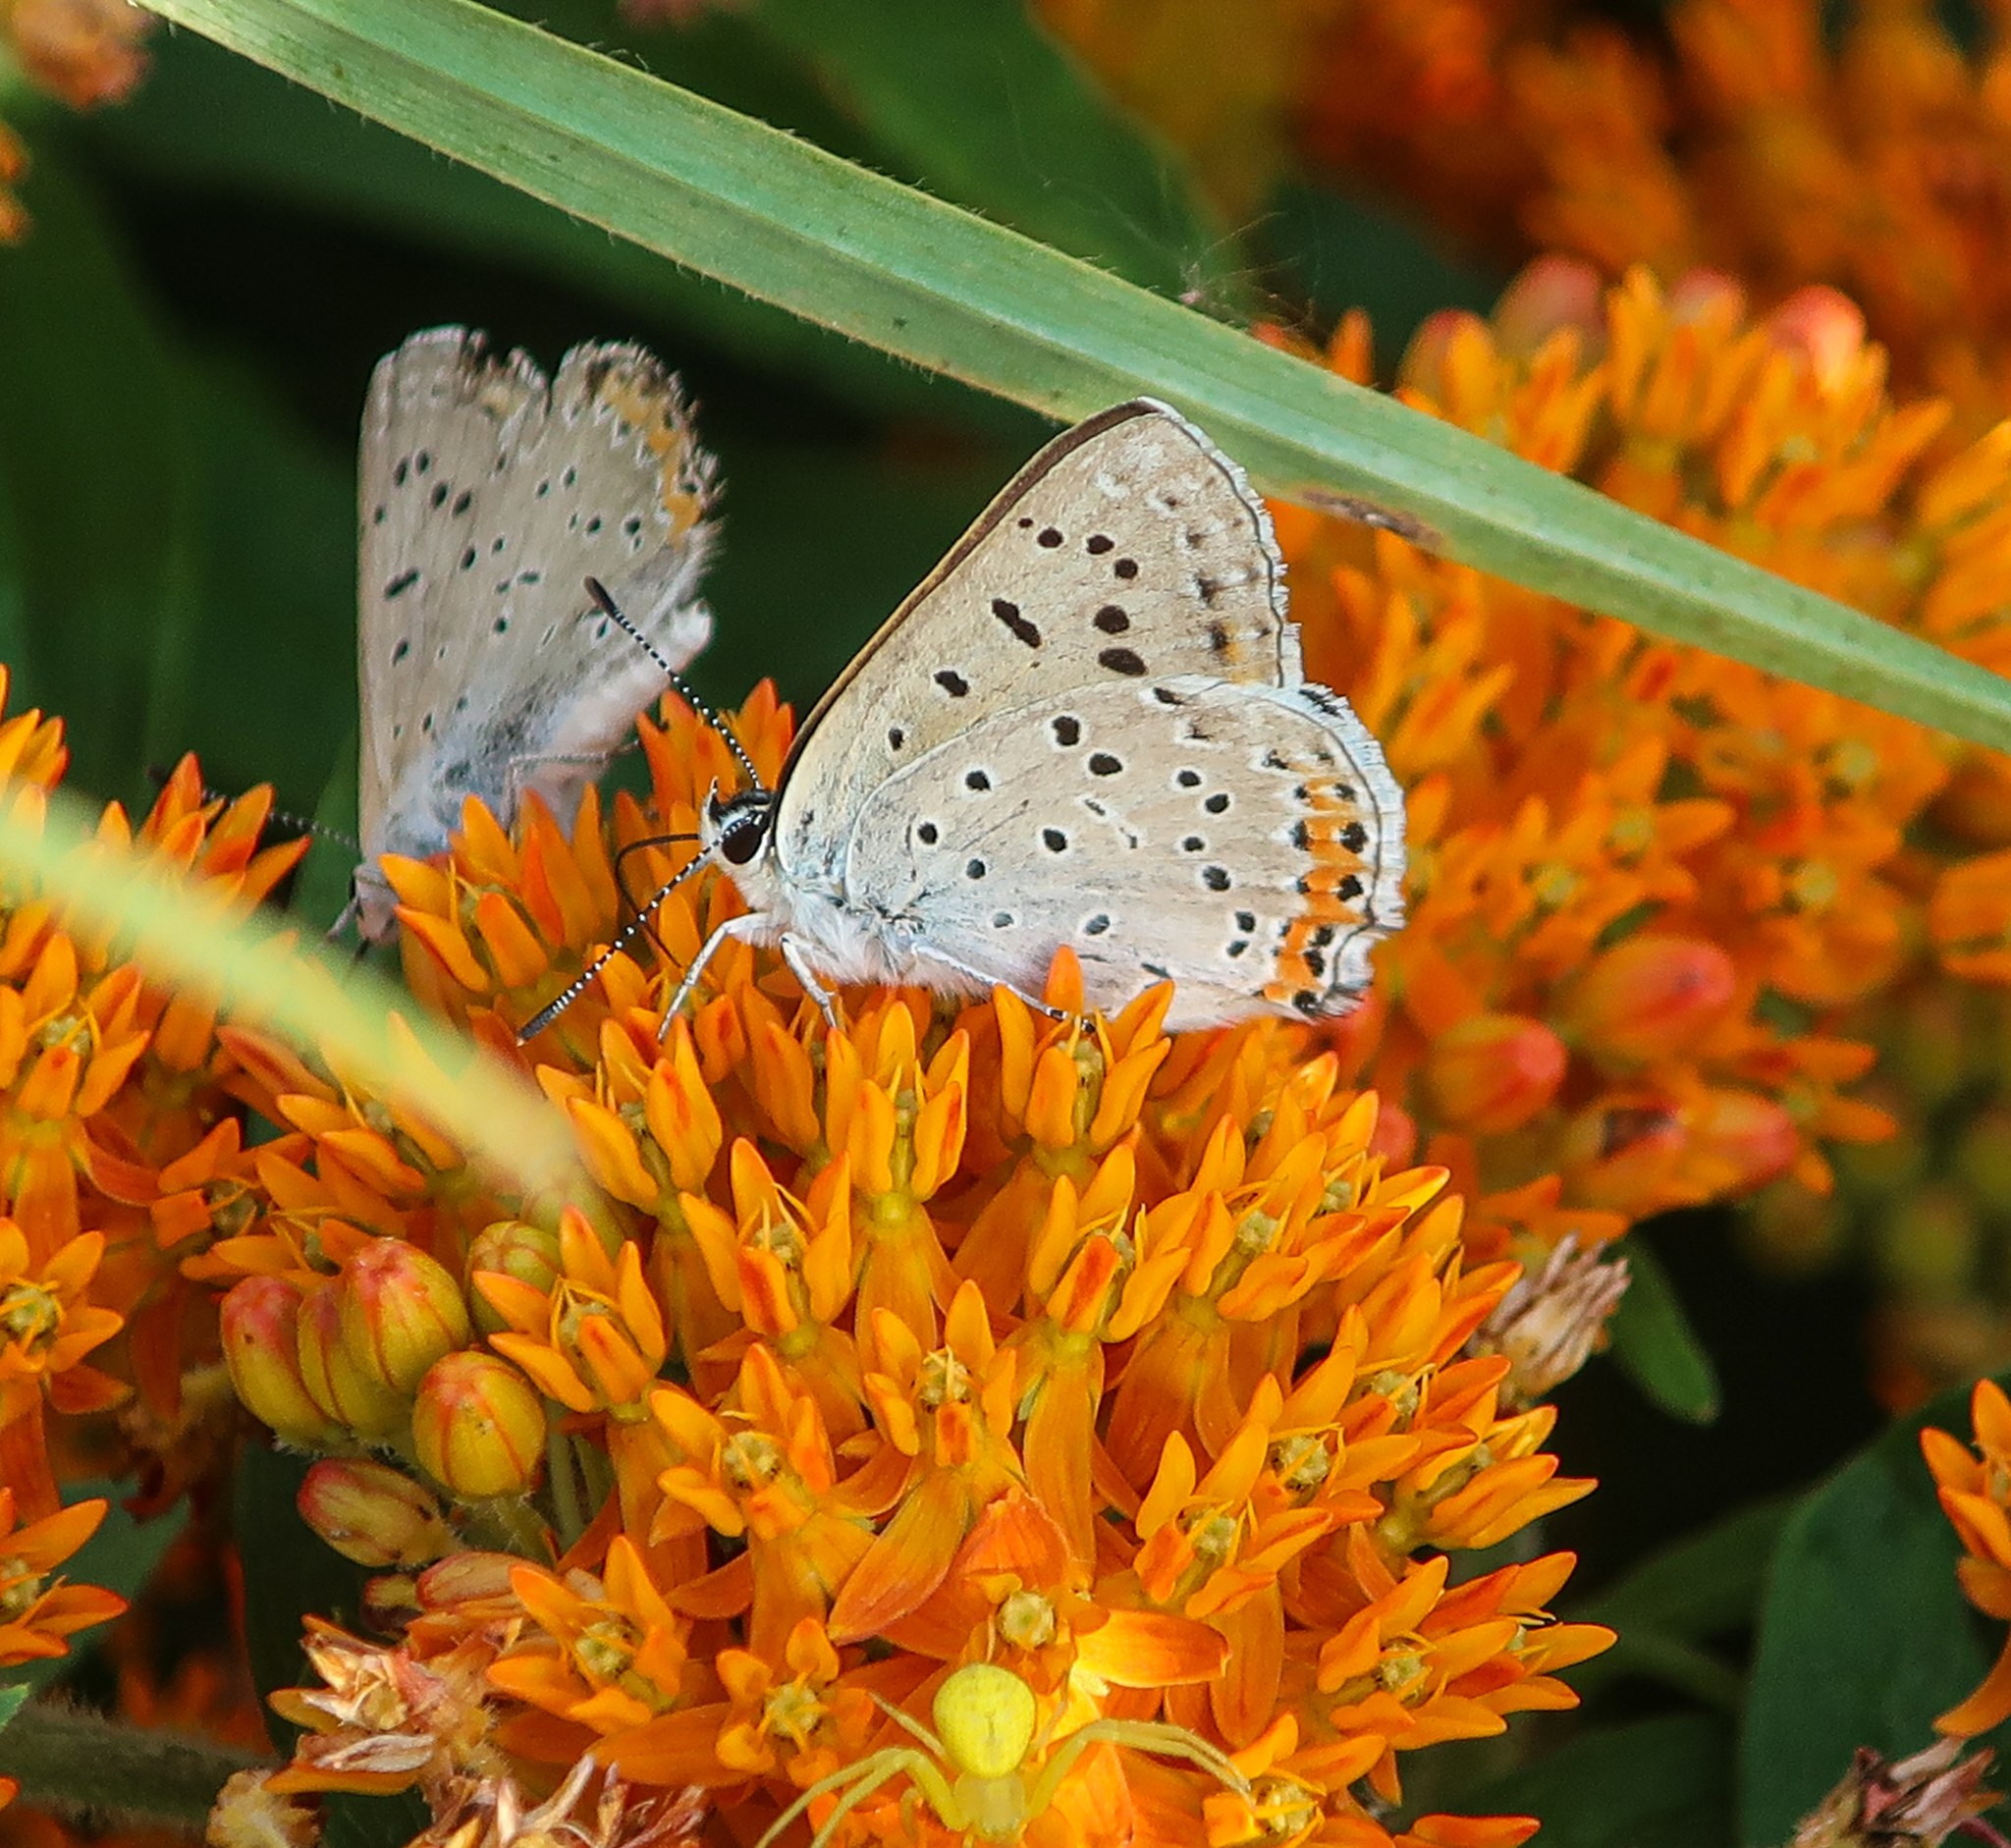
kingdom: Animalia
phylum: Arthropoda
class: Insecta
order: Lepidoptera
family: Lycaenidae
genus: Tharsalea
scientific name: Tharsalea dione
